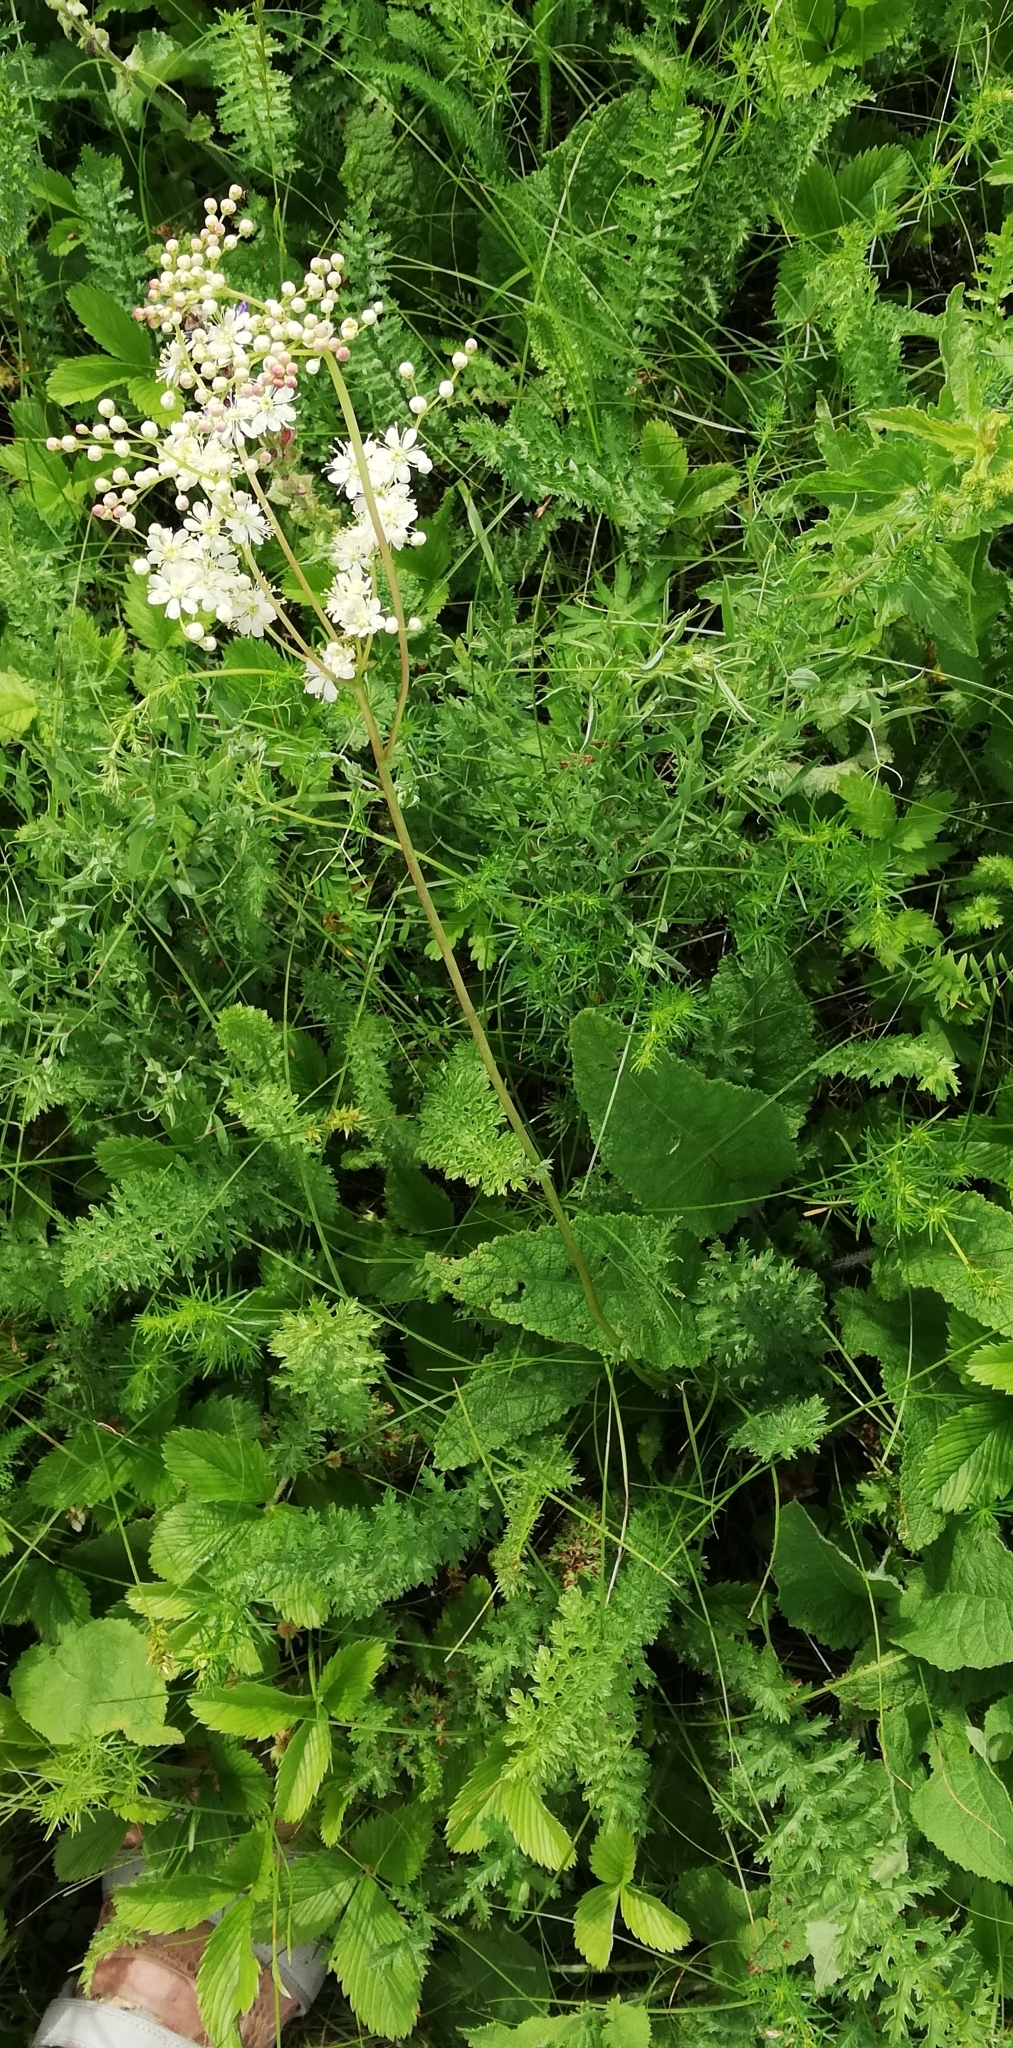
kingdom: Plantae
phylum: Tracheophyta
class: Magnoliopsida
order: Rosales
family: Rosaceae
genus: Filipendula
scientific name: Filipendula vulgaris
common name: Dropwort
